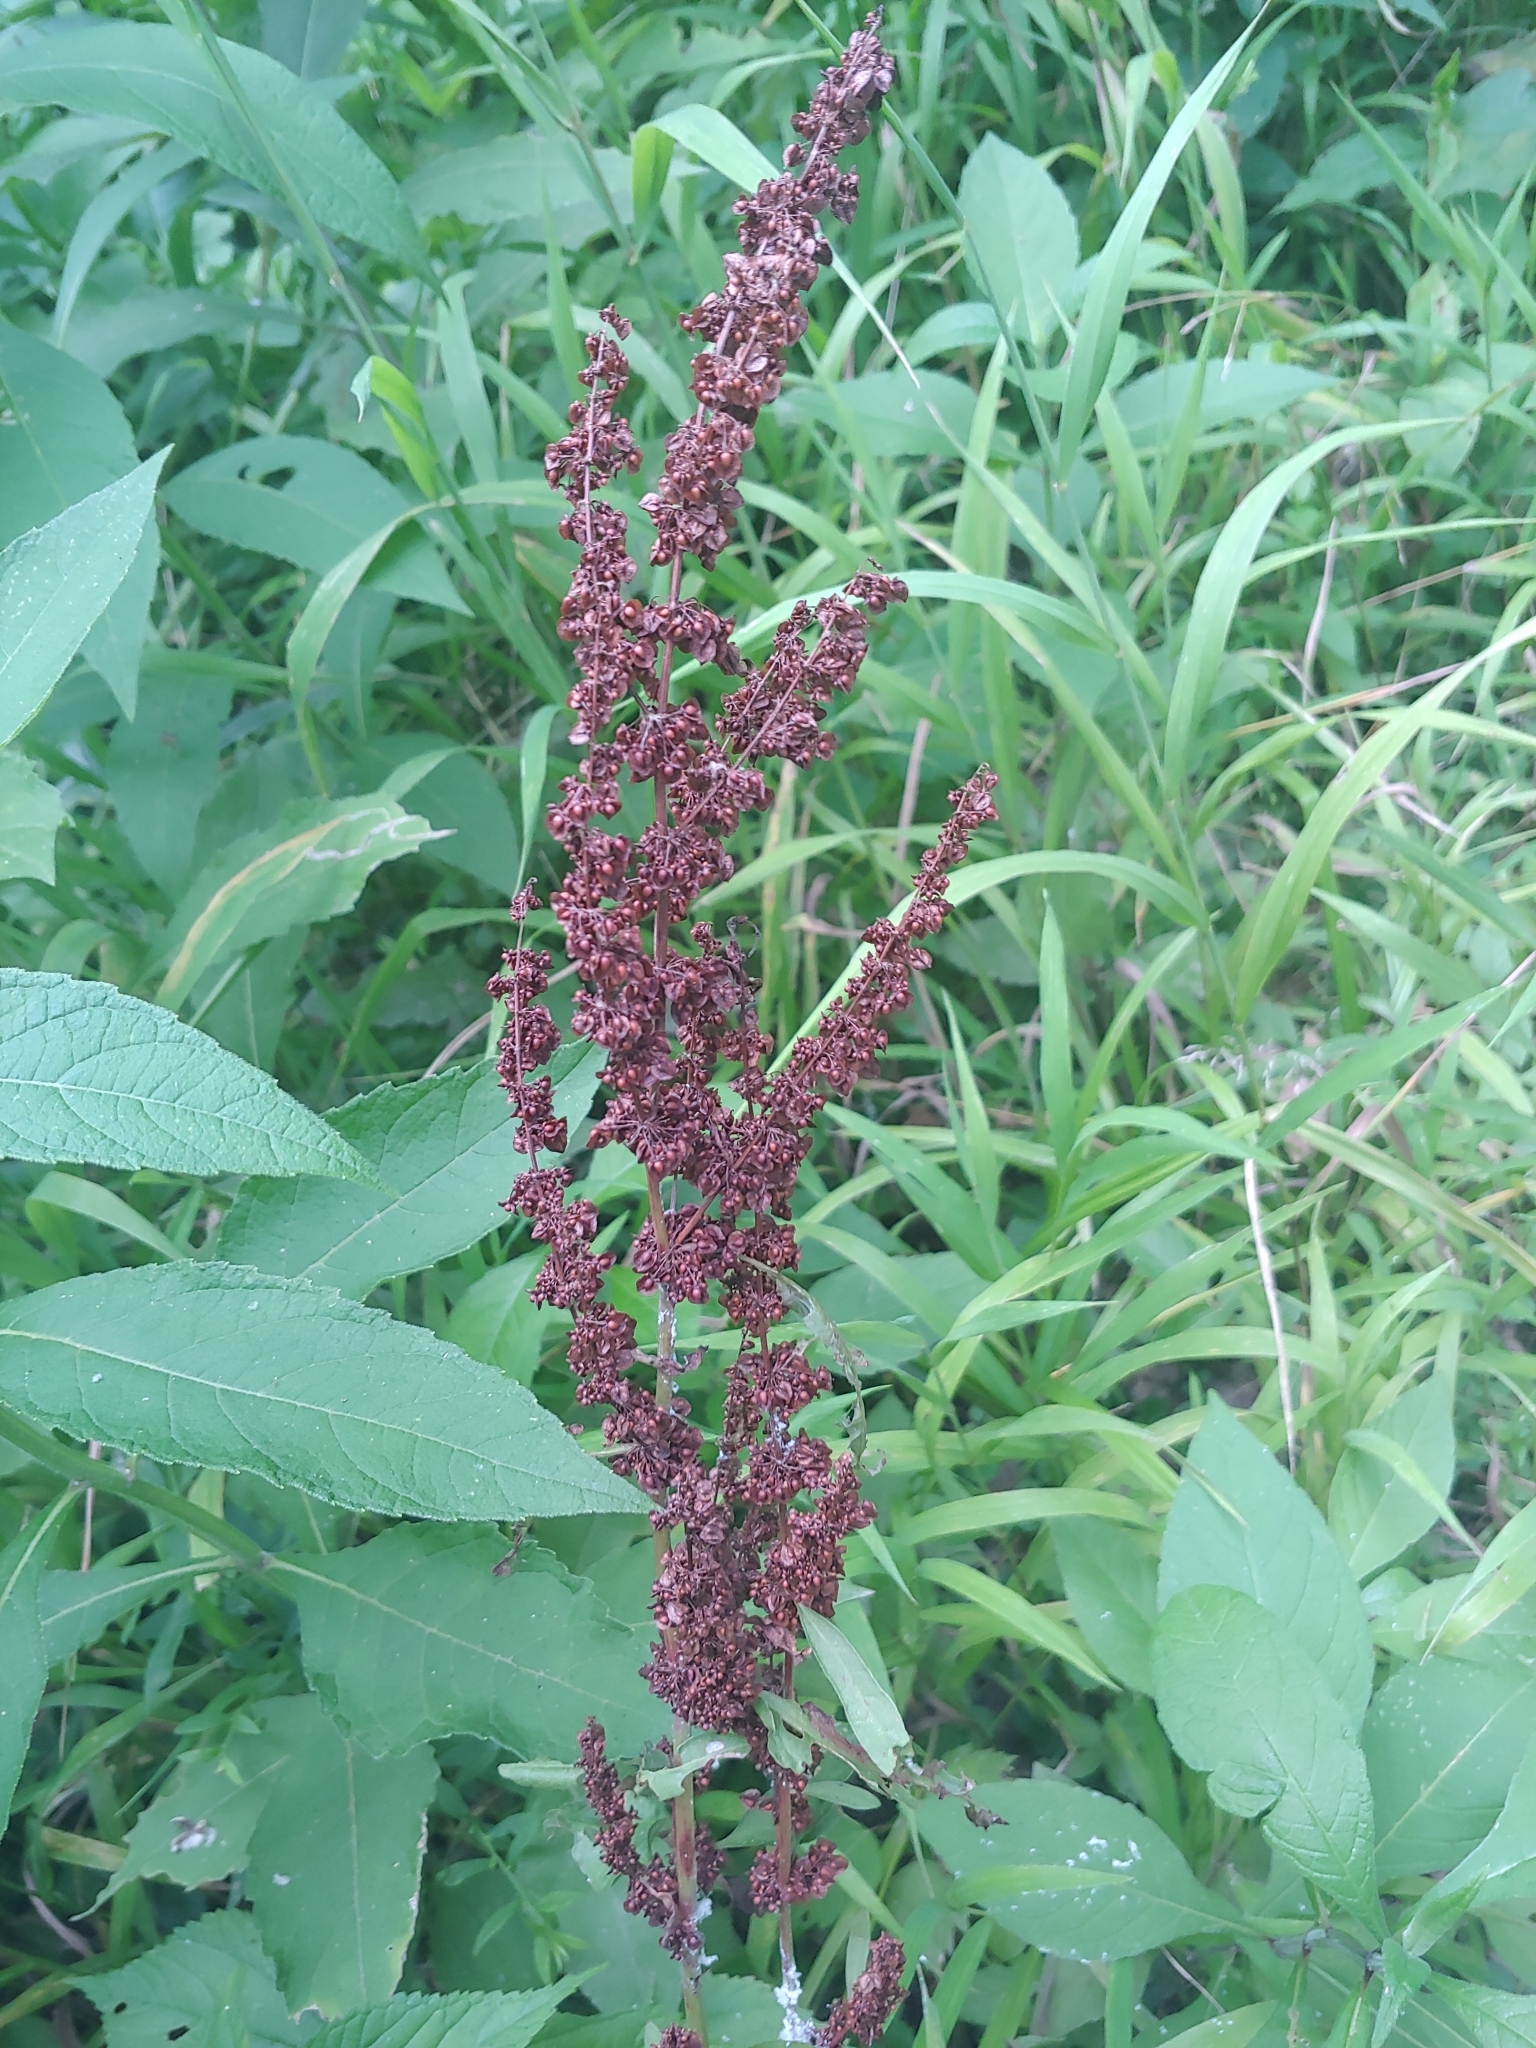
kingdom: Plantae
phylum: Tracheophyta
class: Magnoliopsida
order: Caryophyllales
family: Polygonaceae
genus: Rumex
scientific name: Rumex crispus
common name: Curled dock
